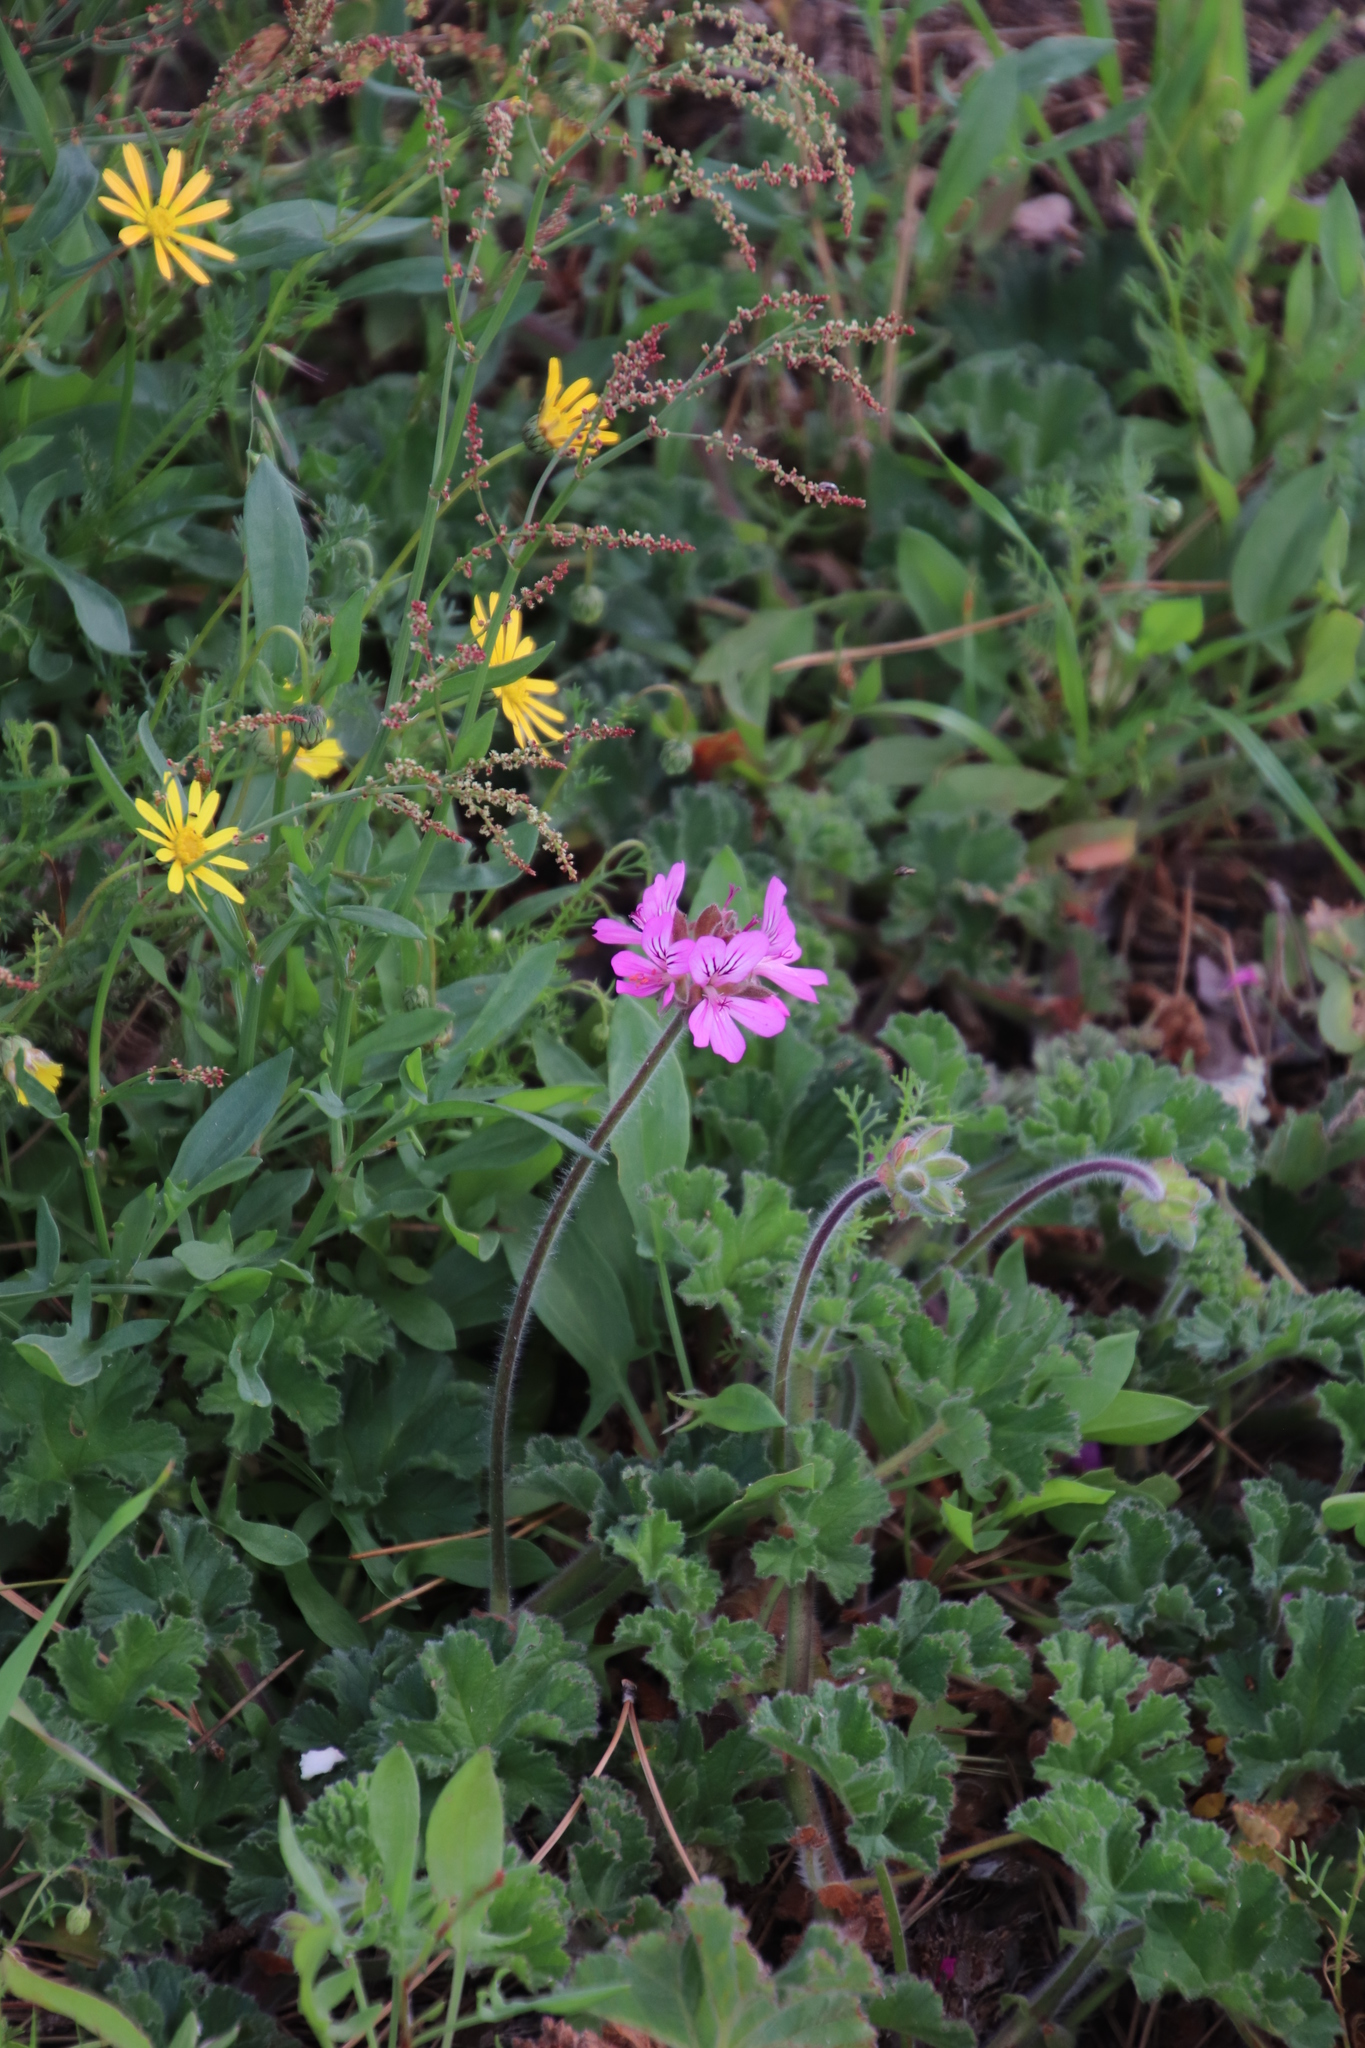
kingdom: Plantae
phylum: Tracheophyta
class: Magnoliopsida
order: Geraniales
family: Geraniaceae
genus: Pelargonium
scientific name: Pelargonium capitatum
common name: Rose scented geranium
